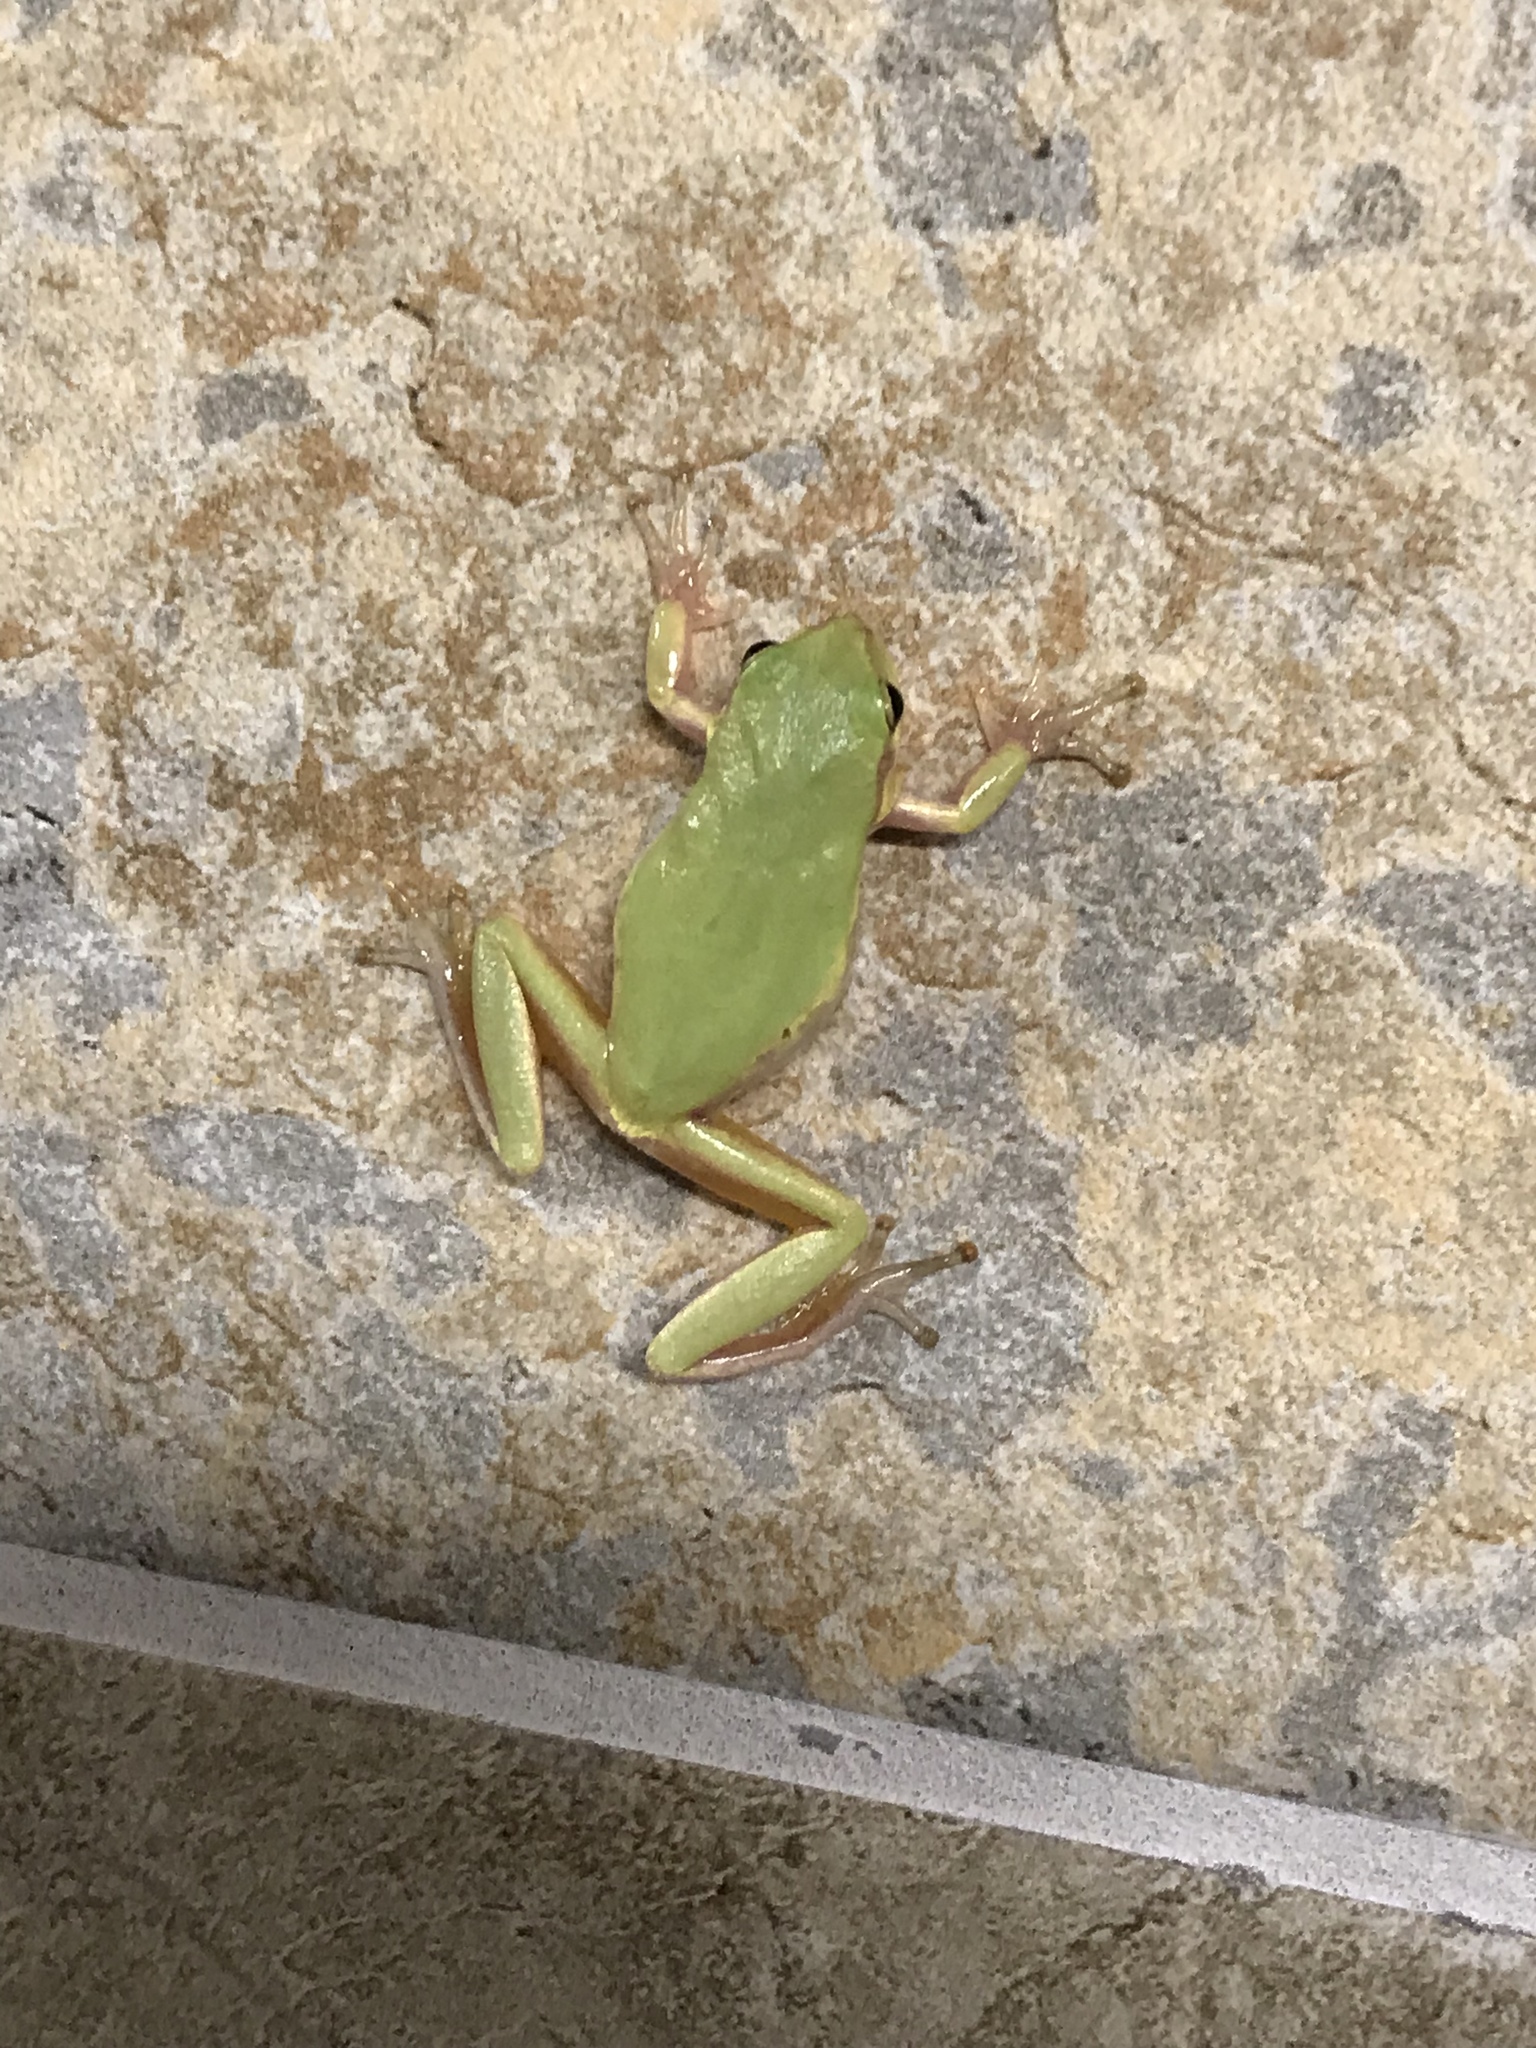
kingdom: Animalia
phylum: Chordata
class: Amphibia
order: Anura
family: Hylidae
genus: Dryophytes
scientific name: Dryophytes squirellus
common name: Squirrel treefrog
